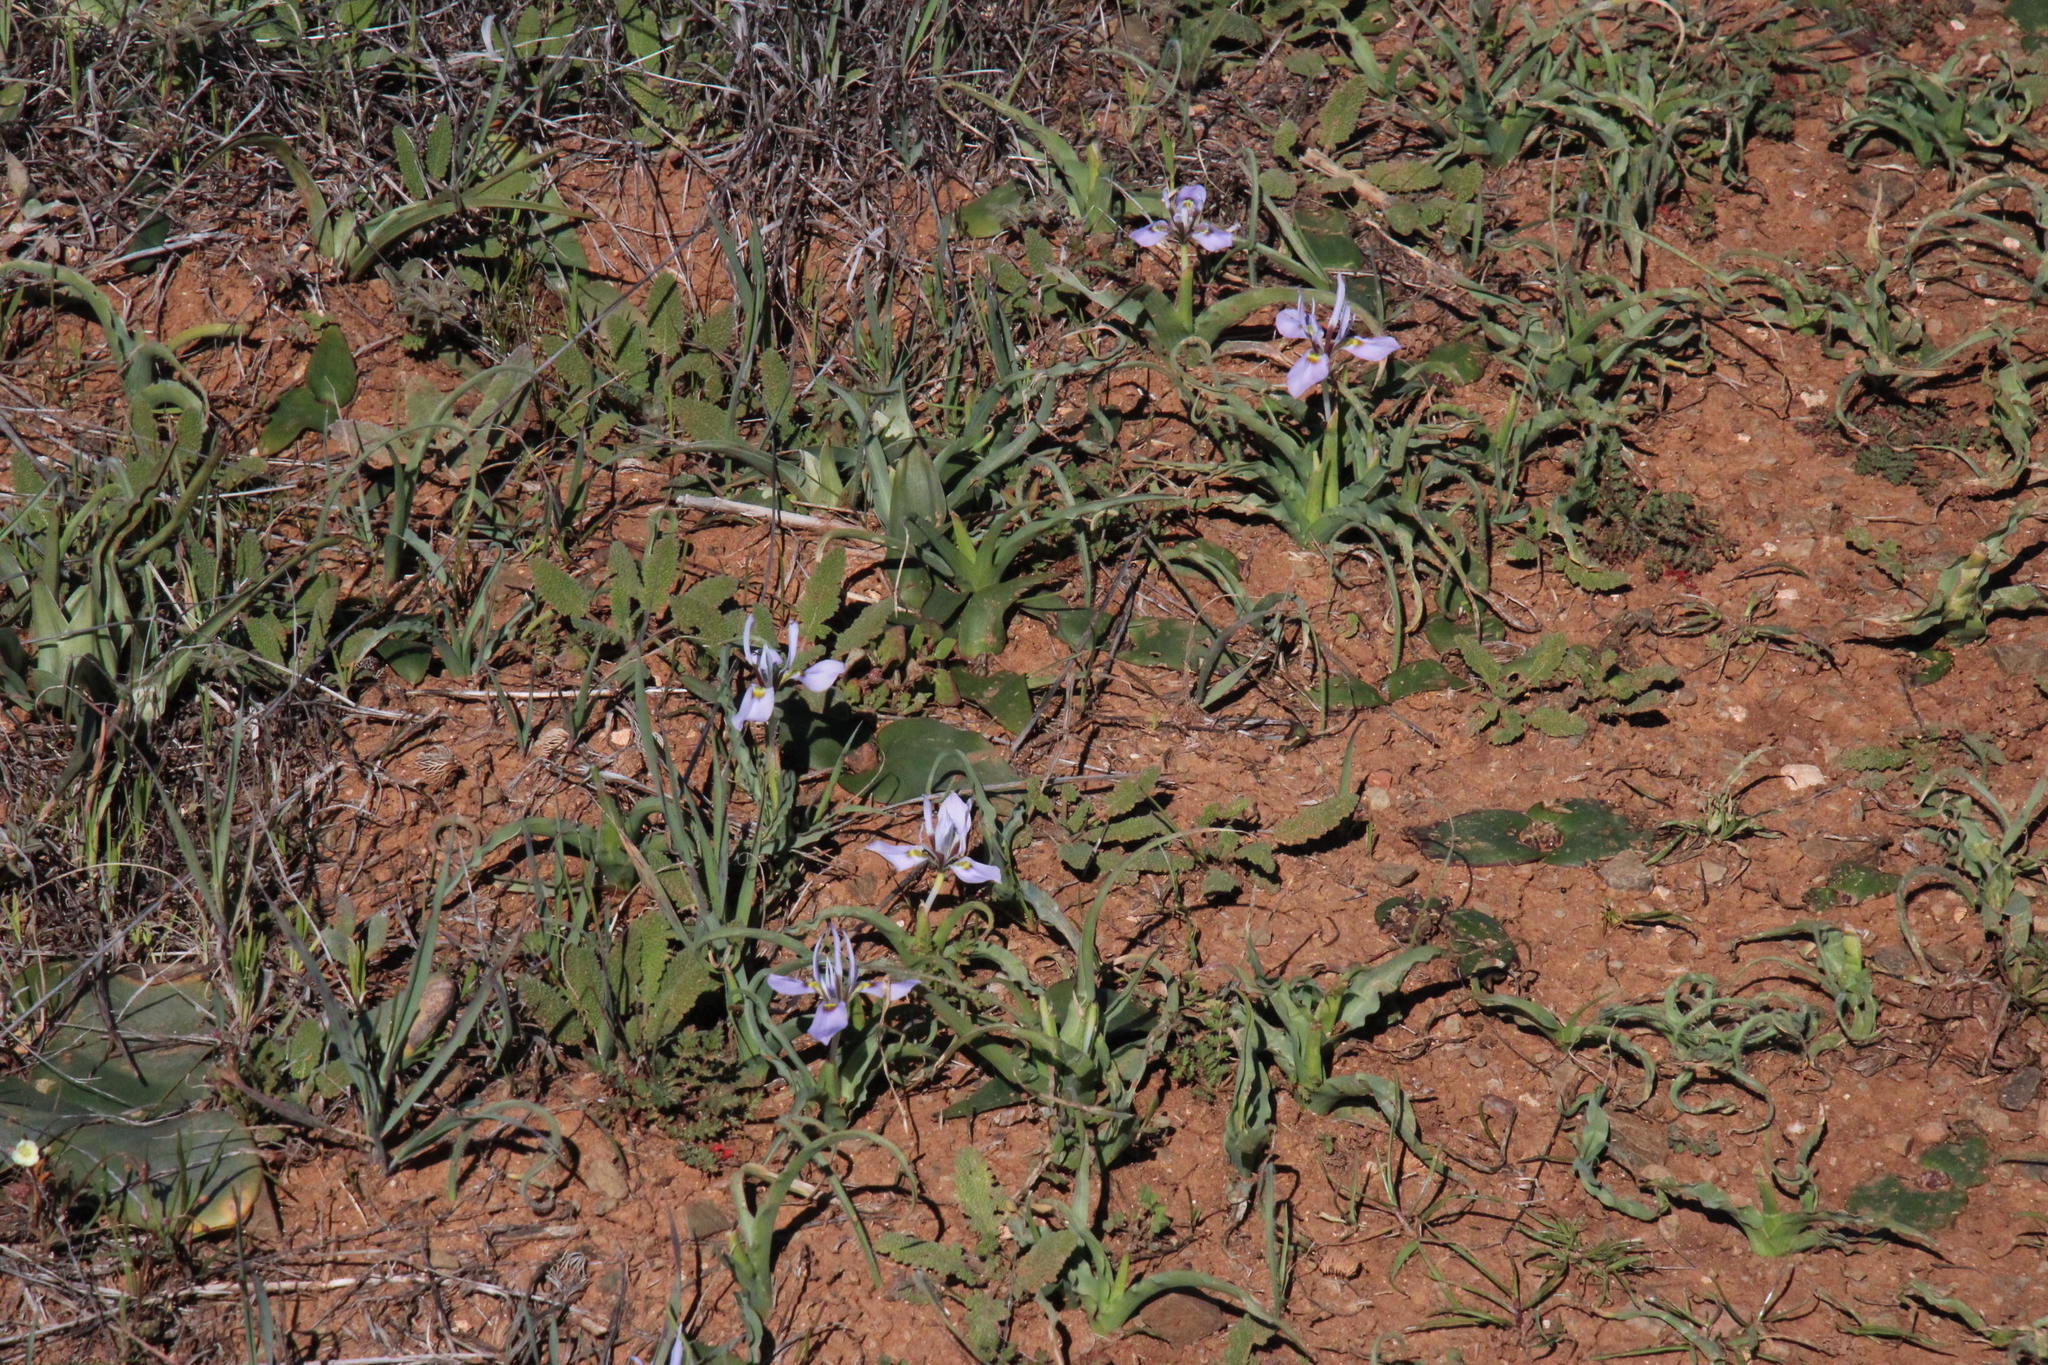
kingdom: Plantae
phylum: Tracheophyta
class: Liliopsida
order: Asparagales
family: Iridaceae
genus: Moraea
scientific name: Moraea ciliata
